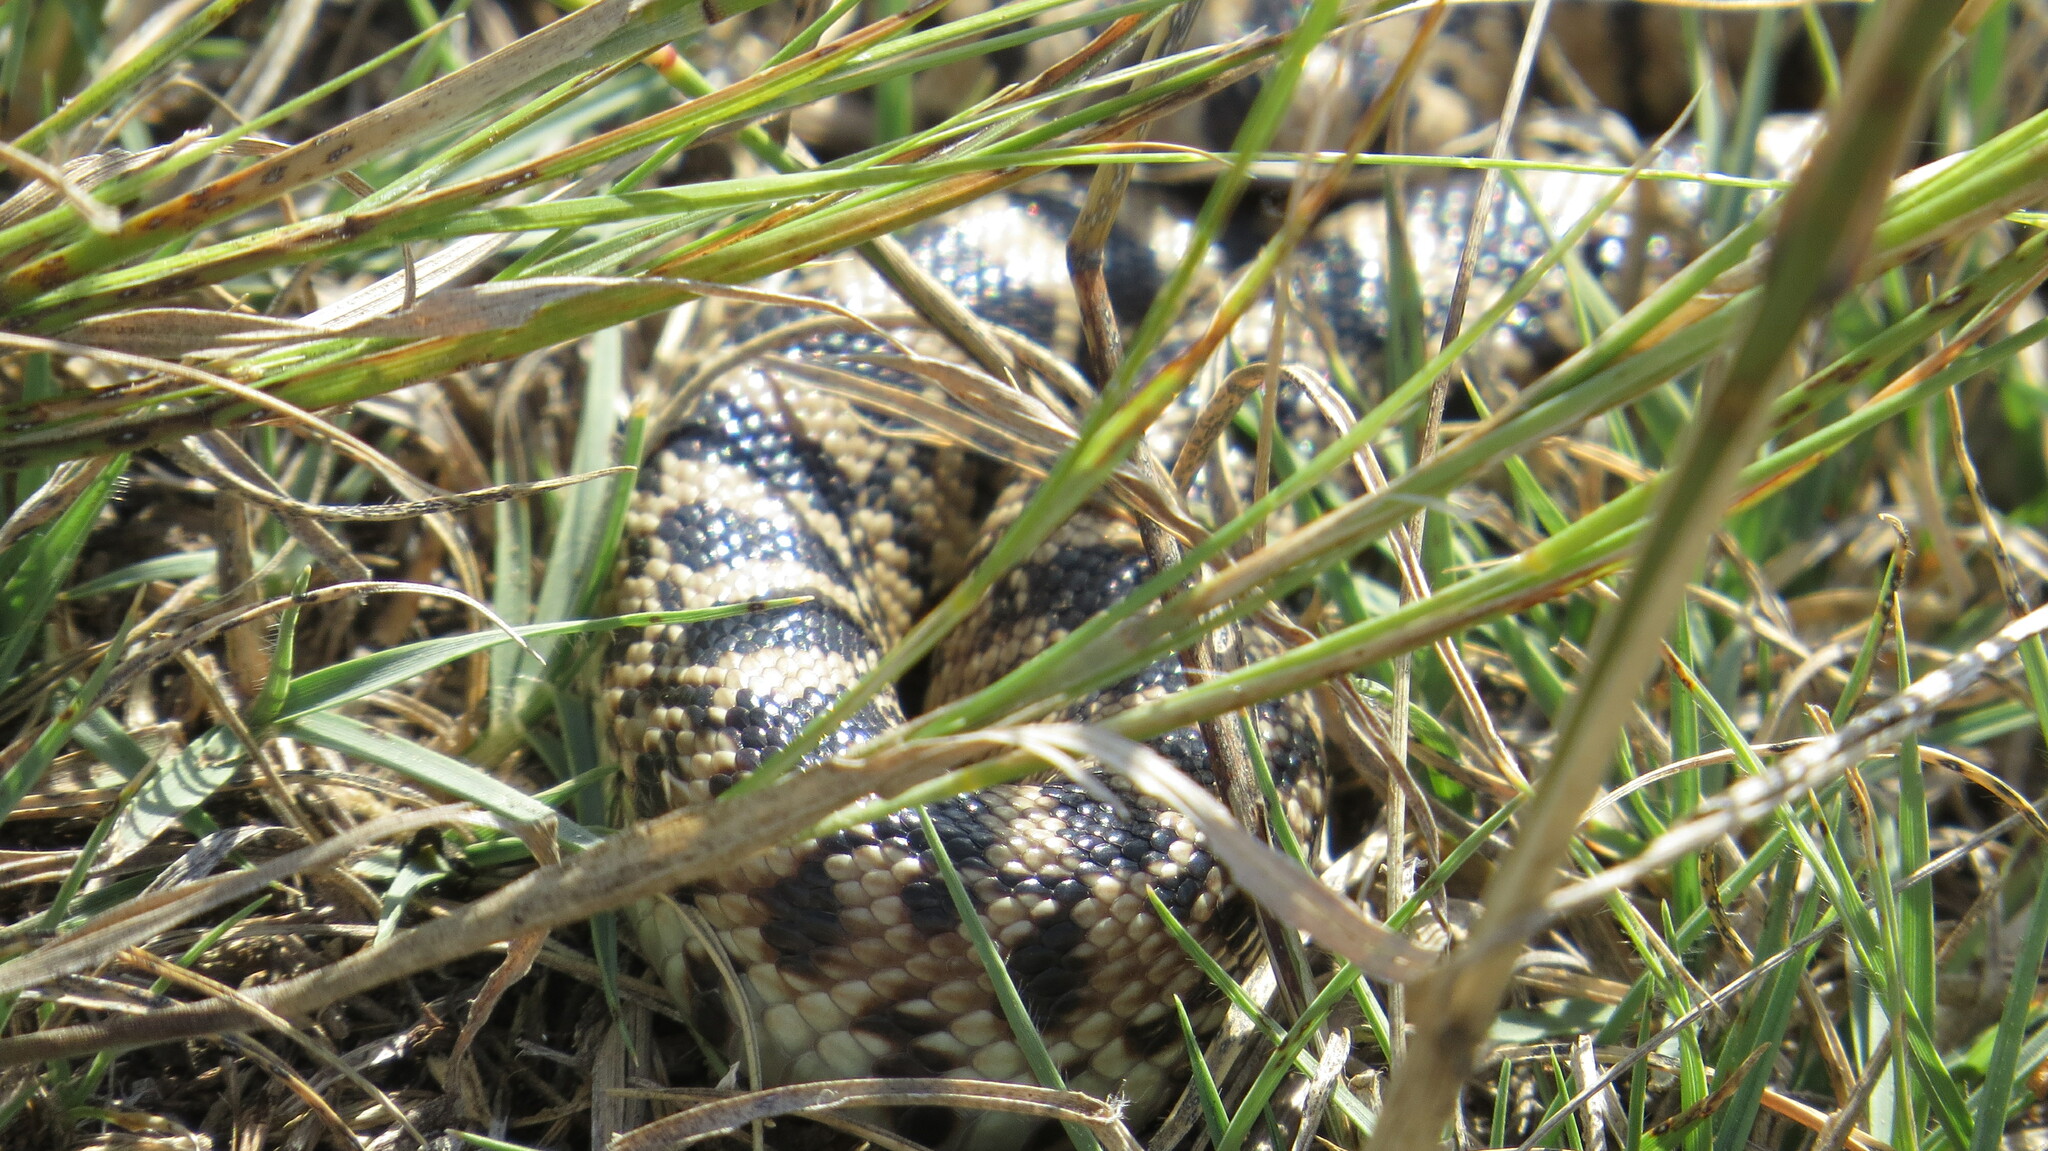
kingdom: Animalia
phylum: Chordata
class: Squamata
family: Colubridae
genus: Pituophis
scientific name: Pituophis catenifer
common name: Gopher snake
